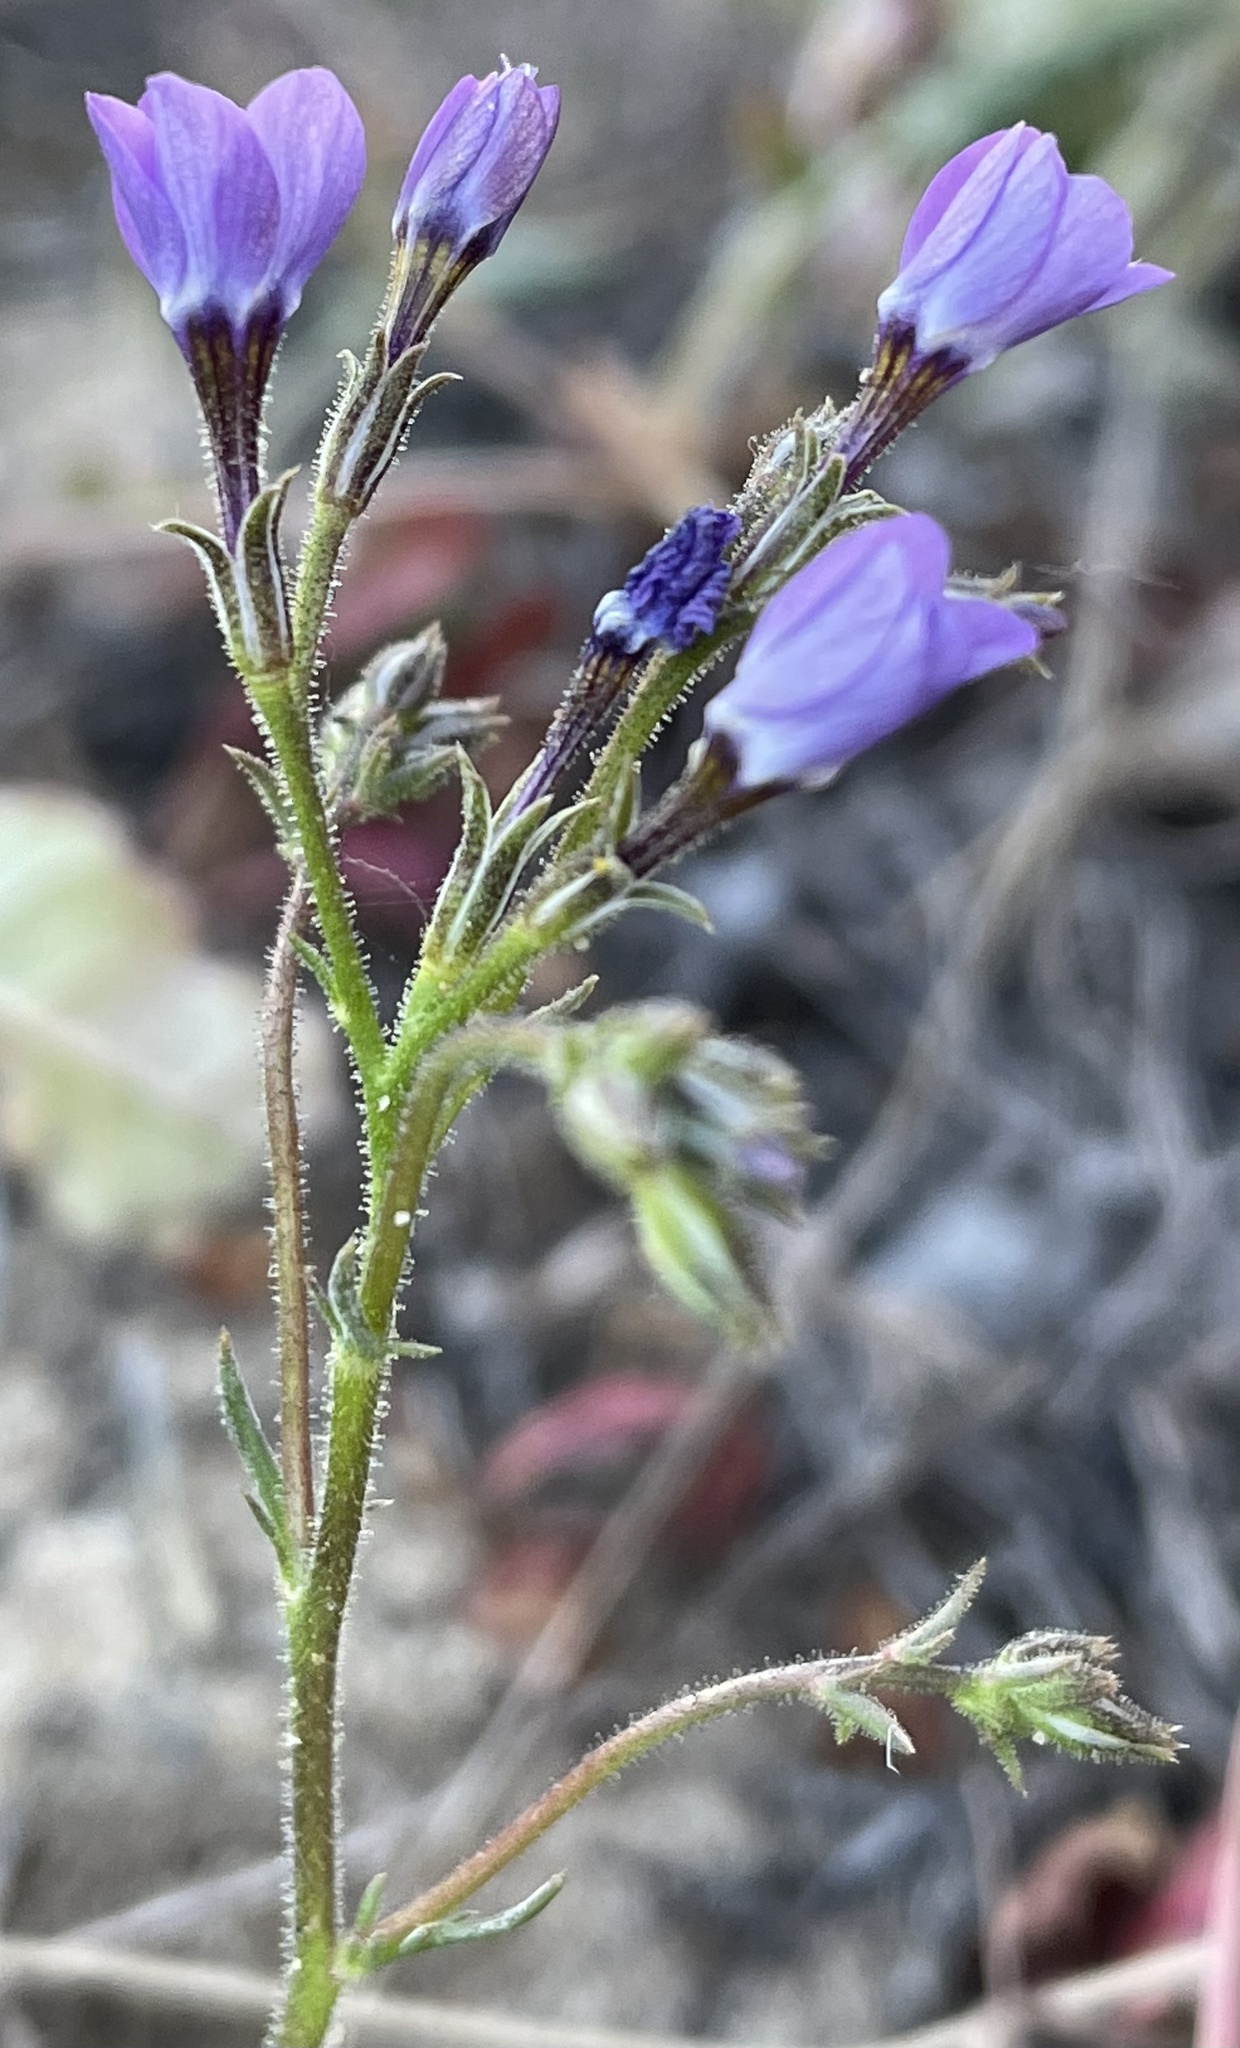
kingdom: Plantae
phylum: Tracheophyta
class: Magnoliopsida
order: Ericales
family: Polemoniaceae
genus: Gilia
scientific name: Gilia tenuiflora
